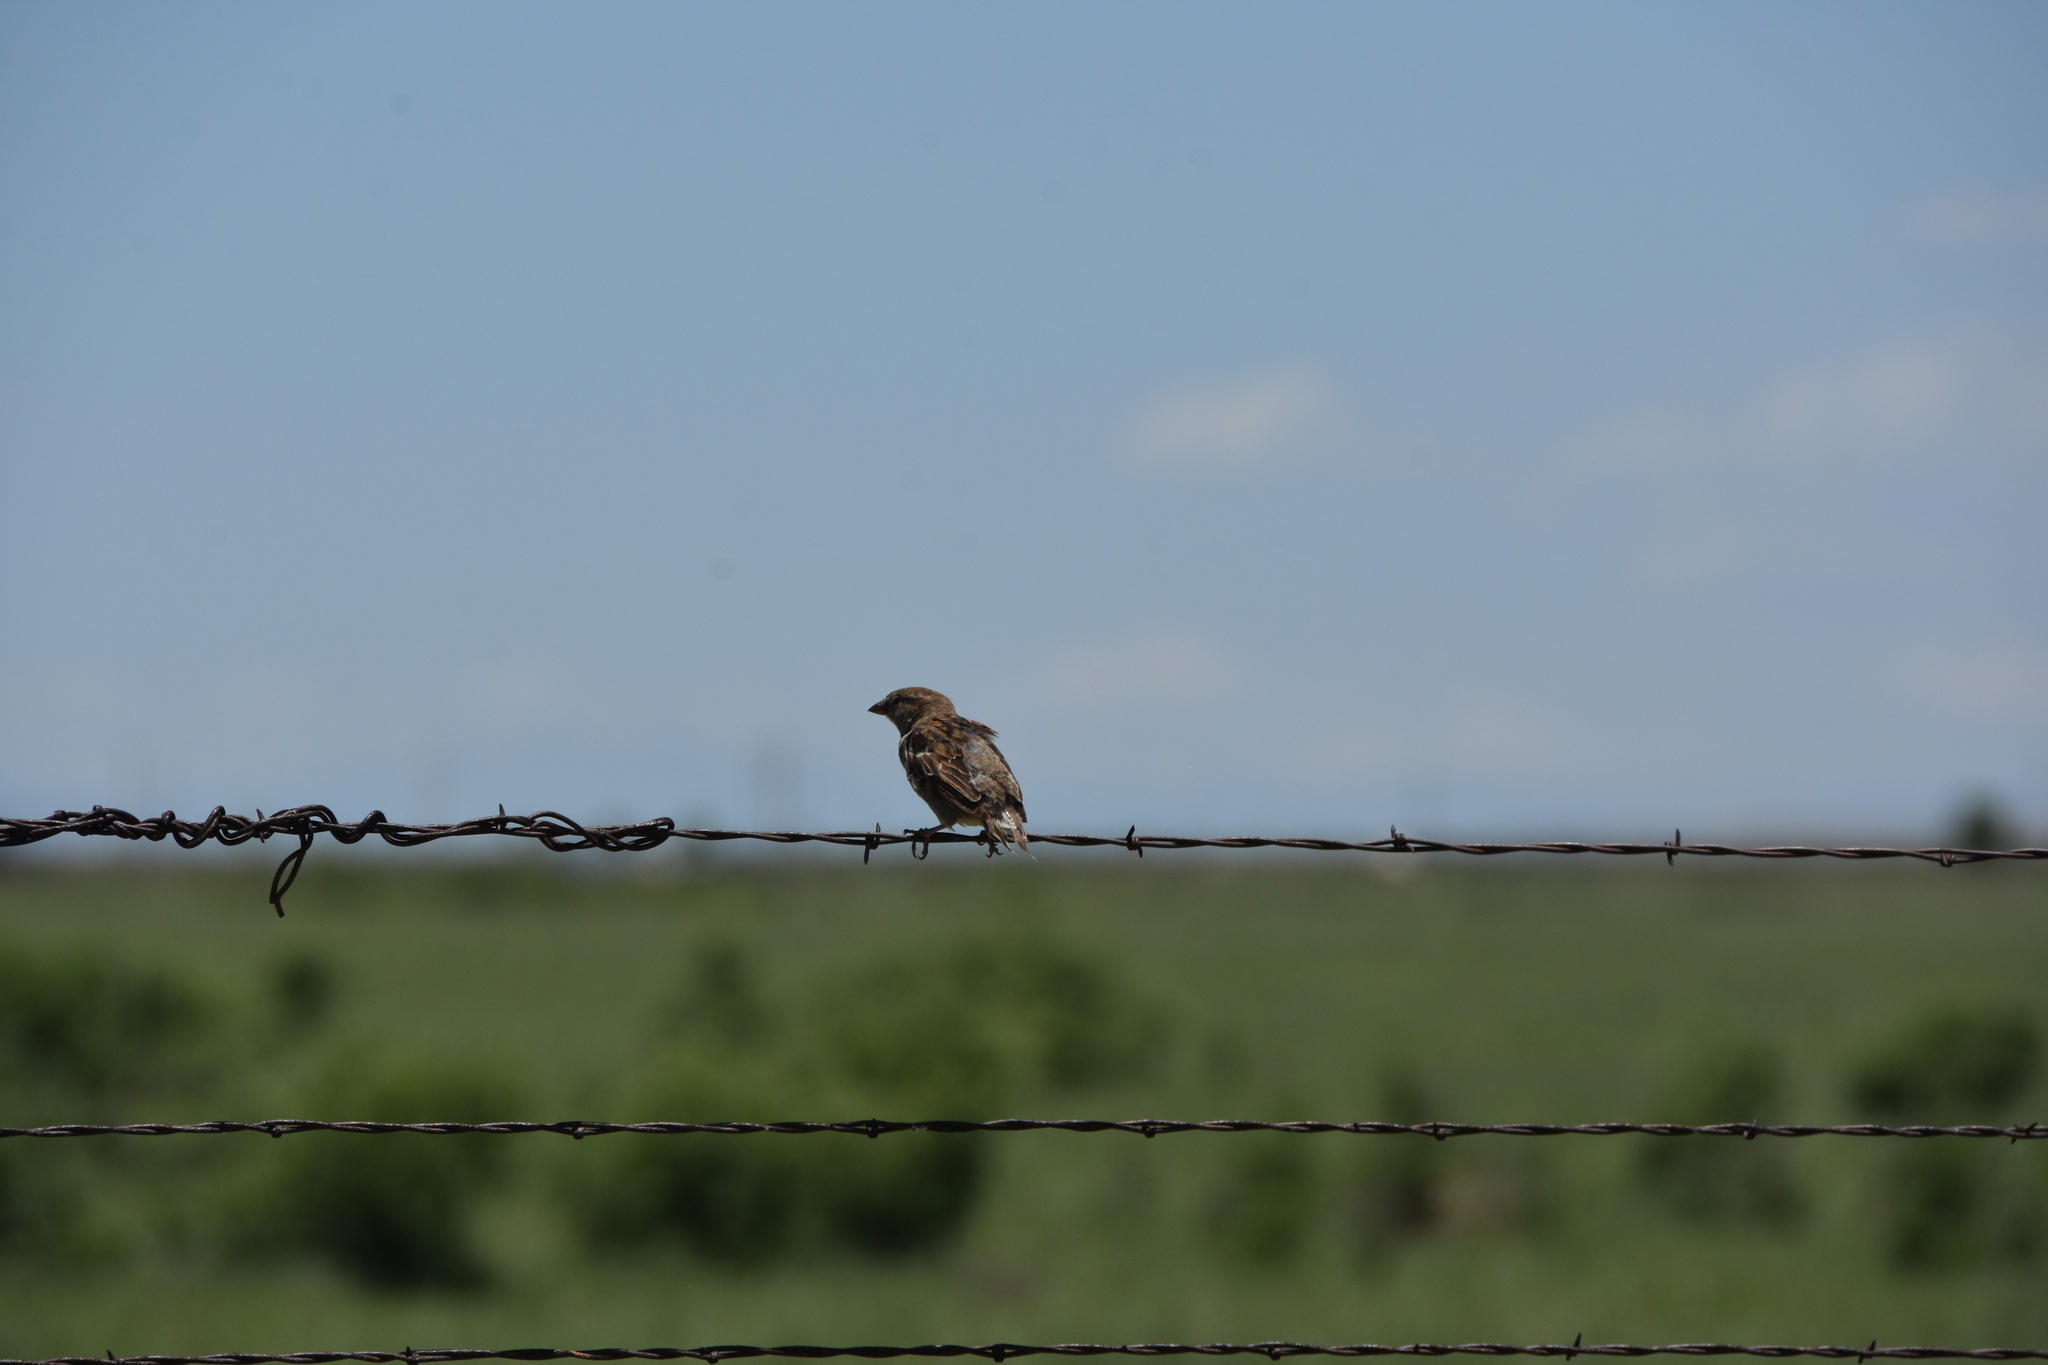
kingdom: Animalia
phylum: Chordata
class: Aves
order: Passeriformes
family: Passeridae
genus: Passer
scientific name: Passer domesticus
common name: House sparrow
